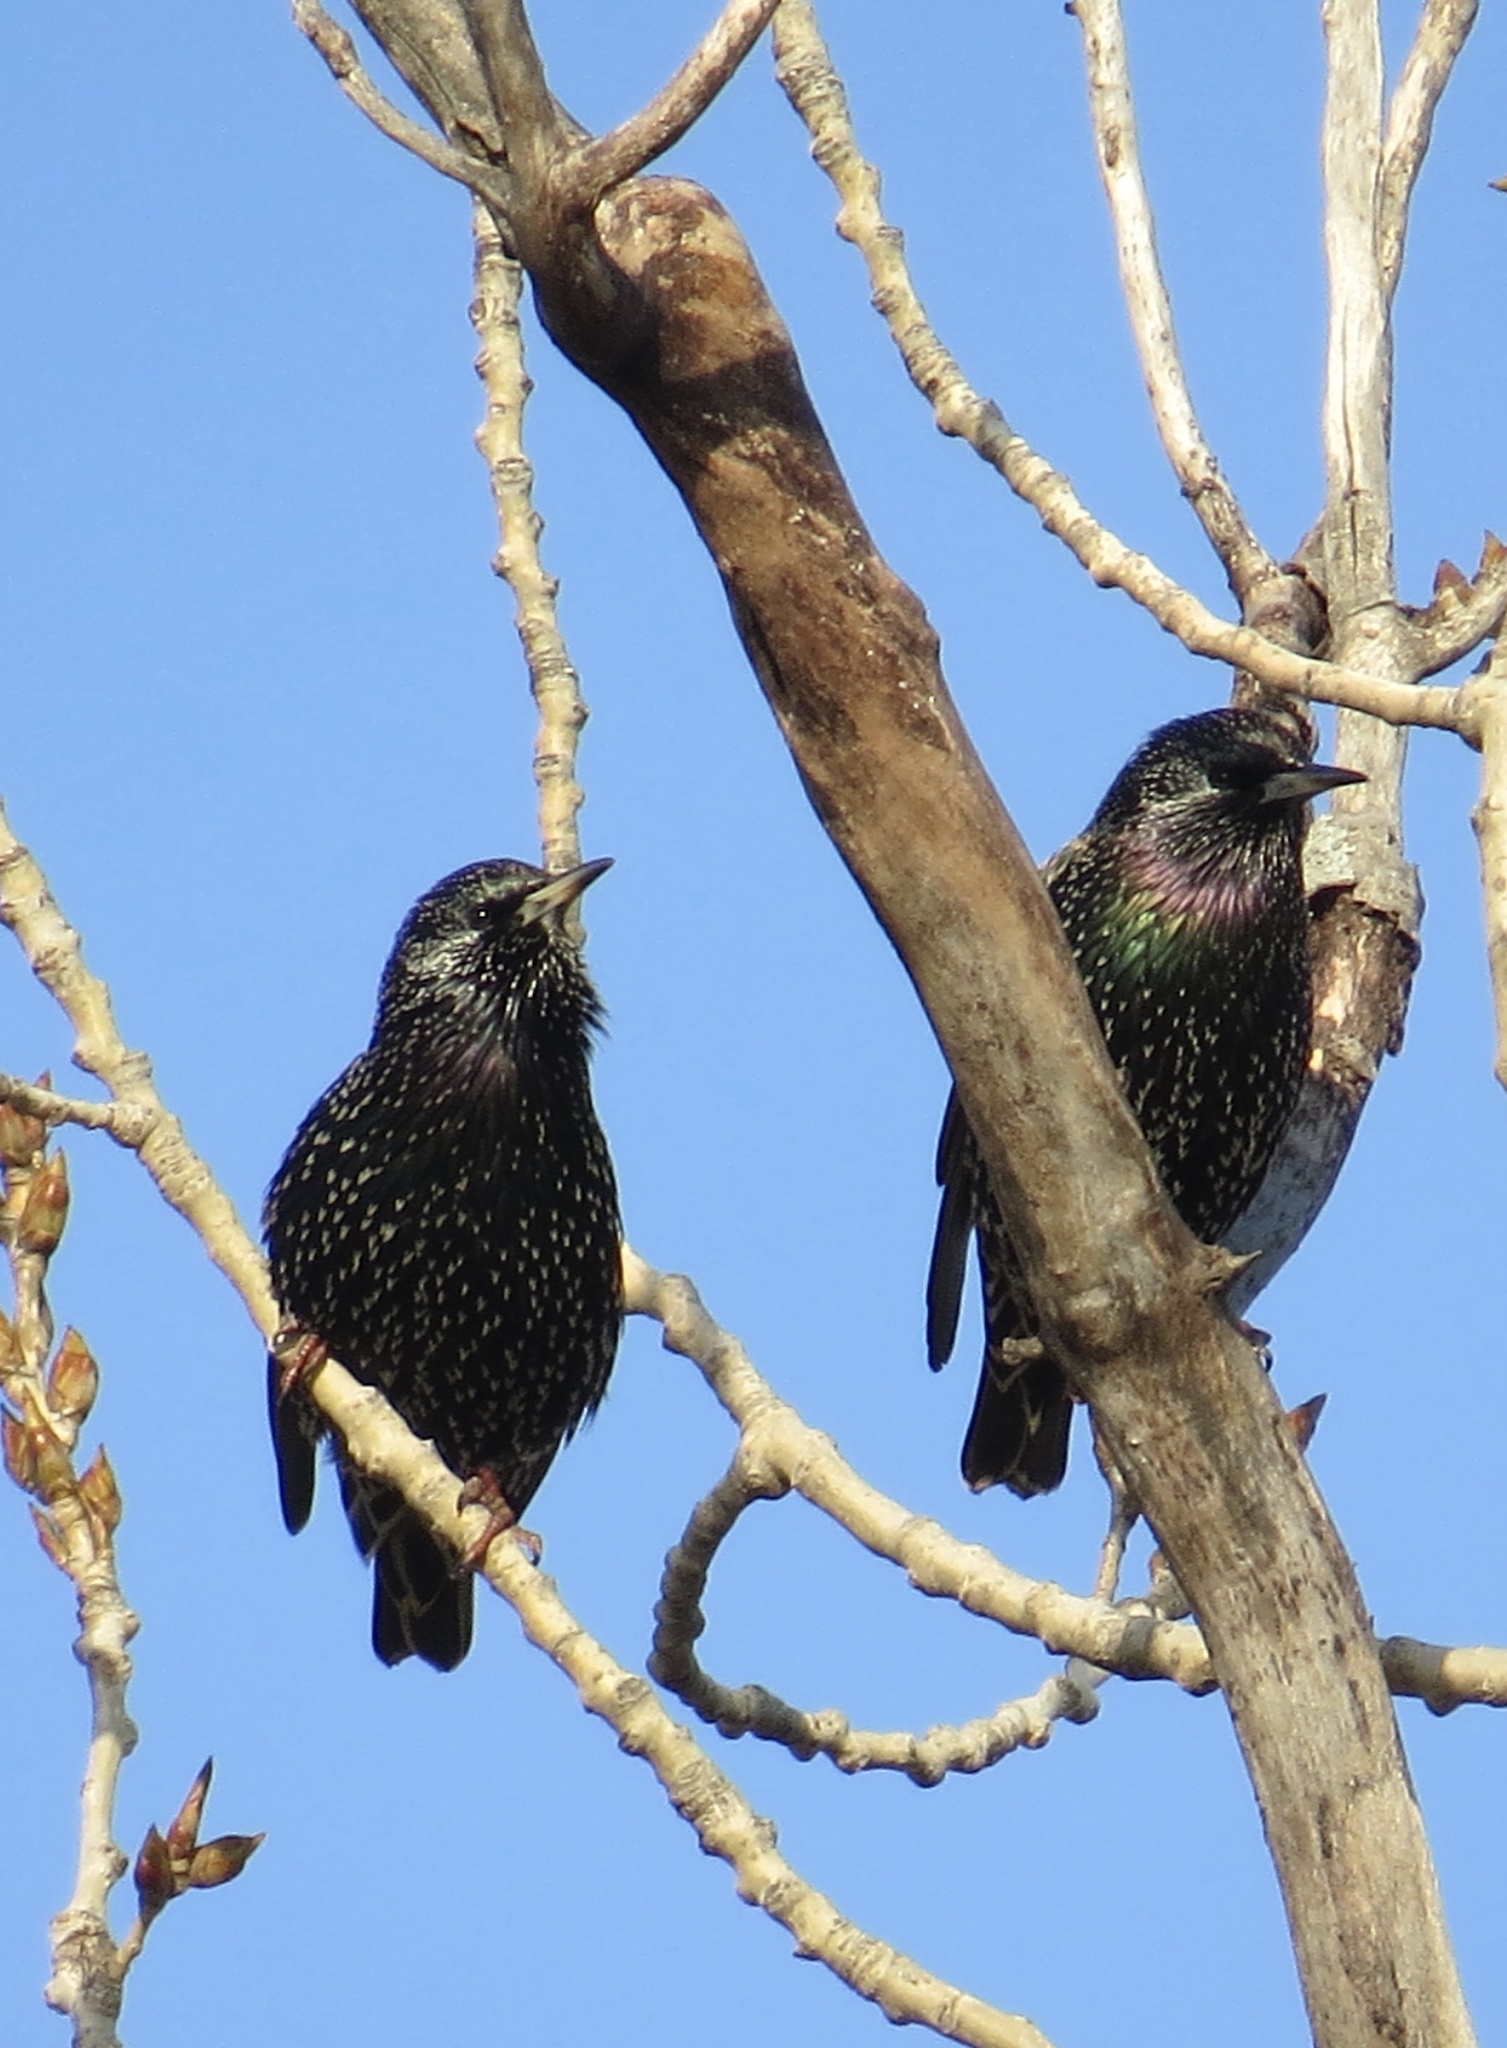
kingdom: Animalia
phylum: Chordata
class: Aves
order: Passeriformes
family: Sturnidae
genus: Sturnus
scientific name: Sturnus vulgaris
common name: Common starling
